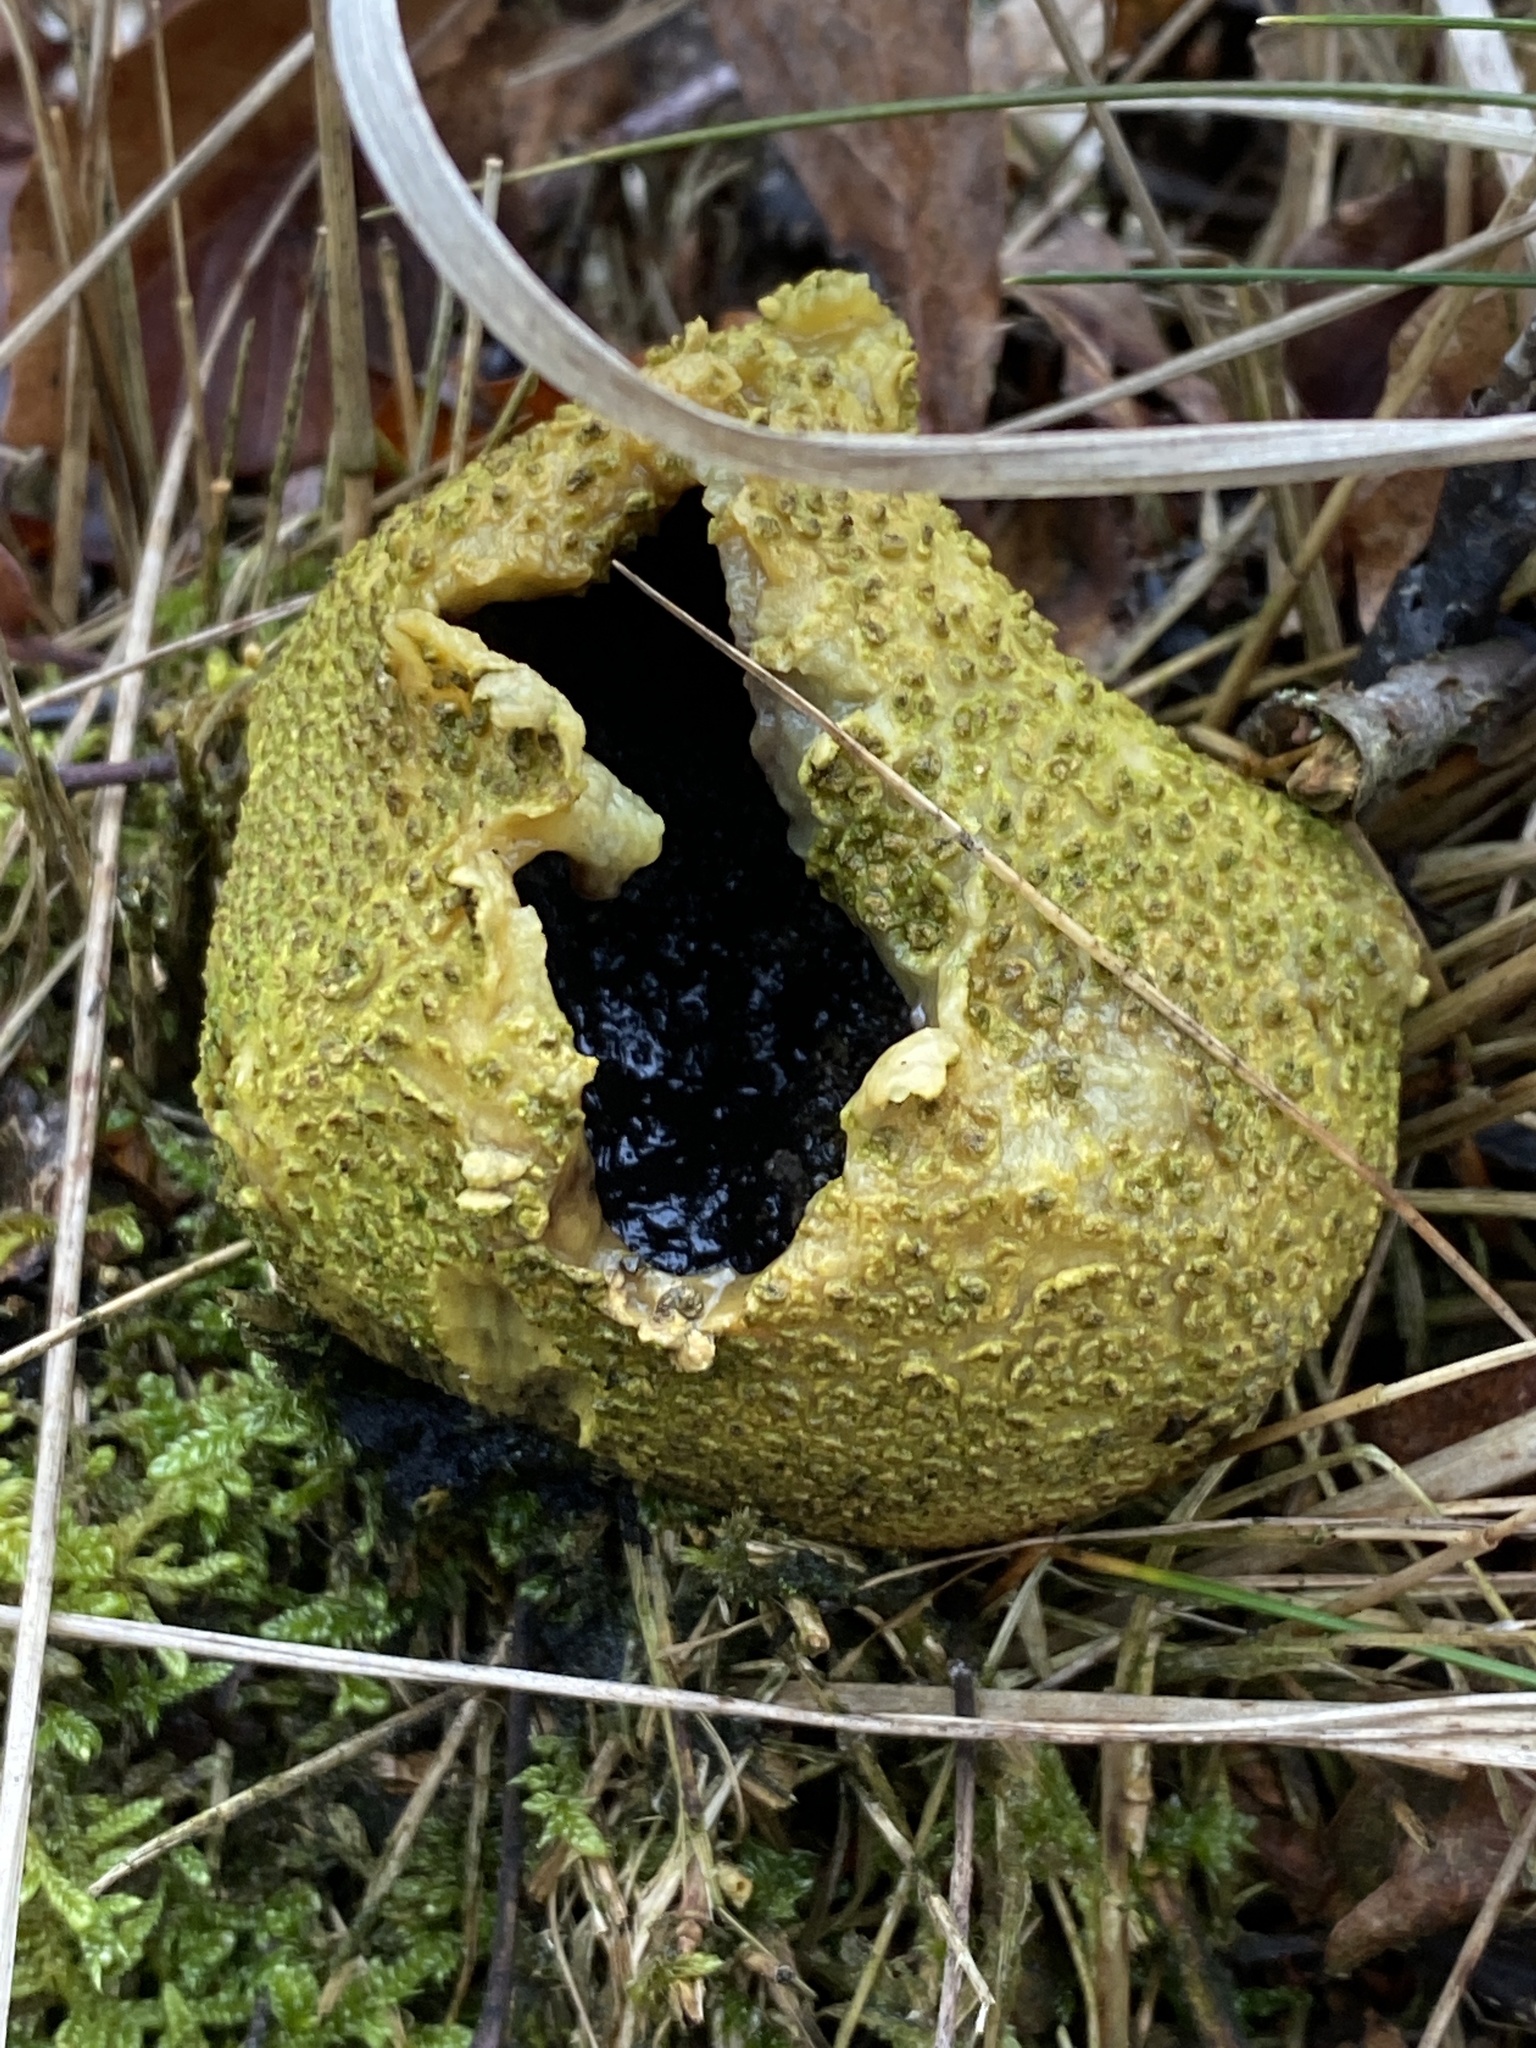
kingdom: Fungi
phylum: Basidiomycota
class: Agaricomycetes
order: Boletales
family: Sclerodermataceae
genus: Scleroderma
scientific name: Scleroderma citrinum
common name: Common earthball
